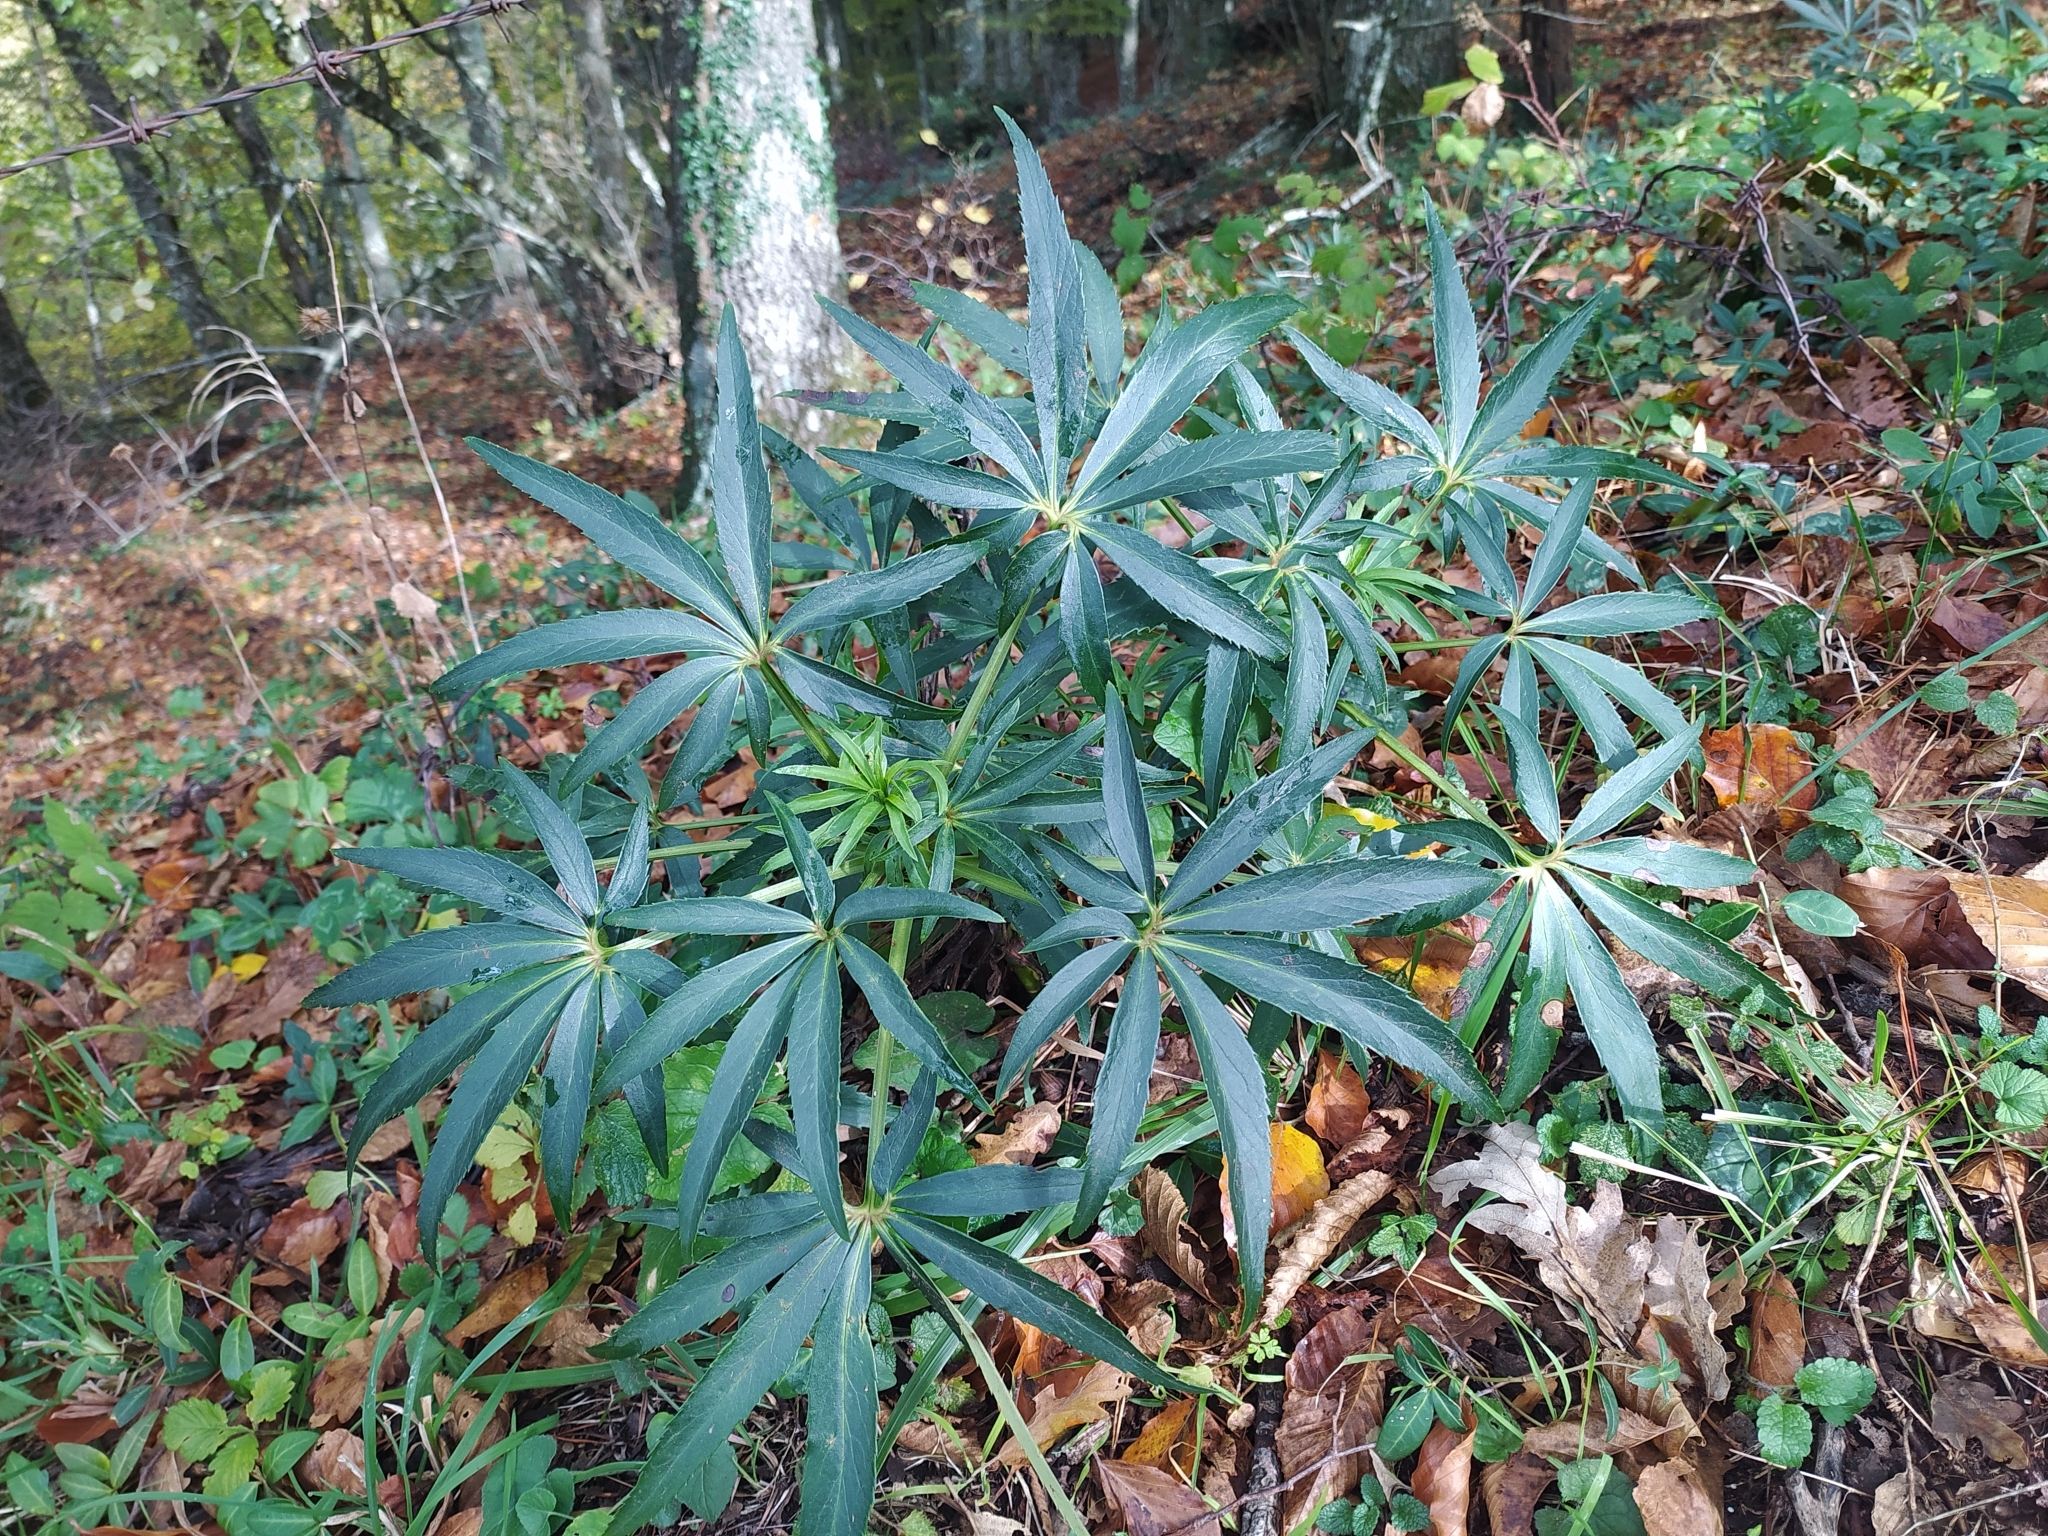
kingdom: Plantae
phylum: Tracheophyta
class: Magnoliopsida
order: Ranunculales
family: Ranunculaceae
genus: Helleborus
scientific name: Helleborus foetidus
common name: Stinking hellebore
